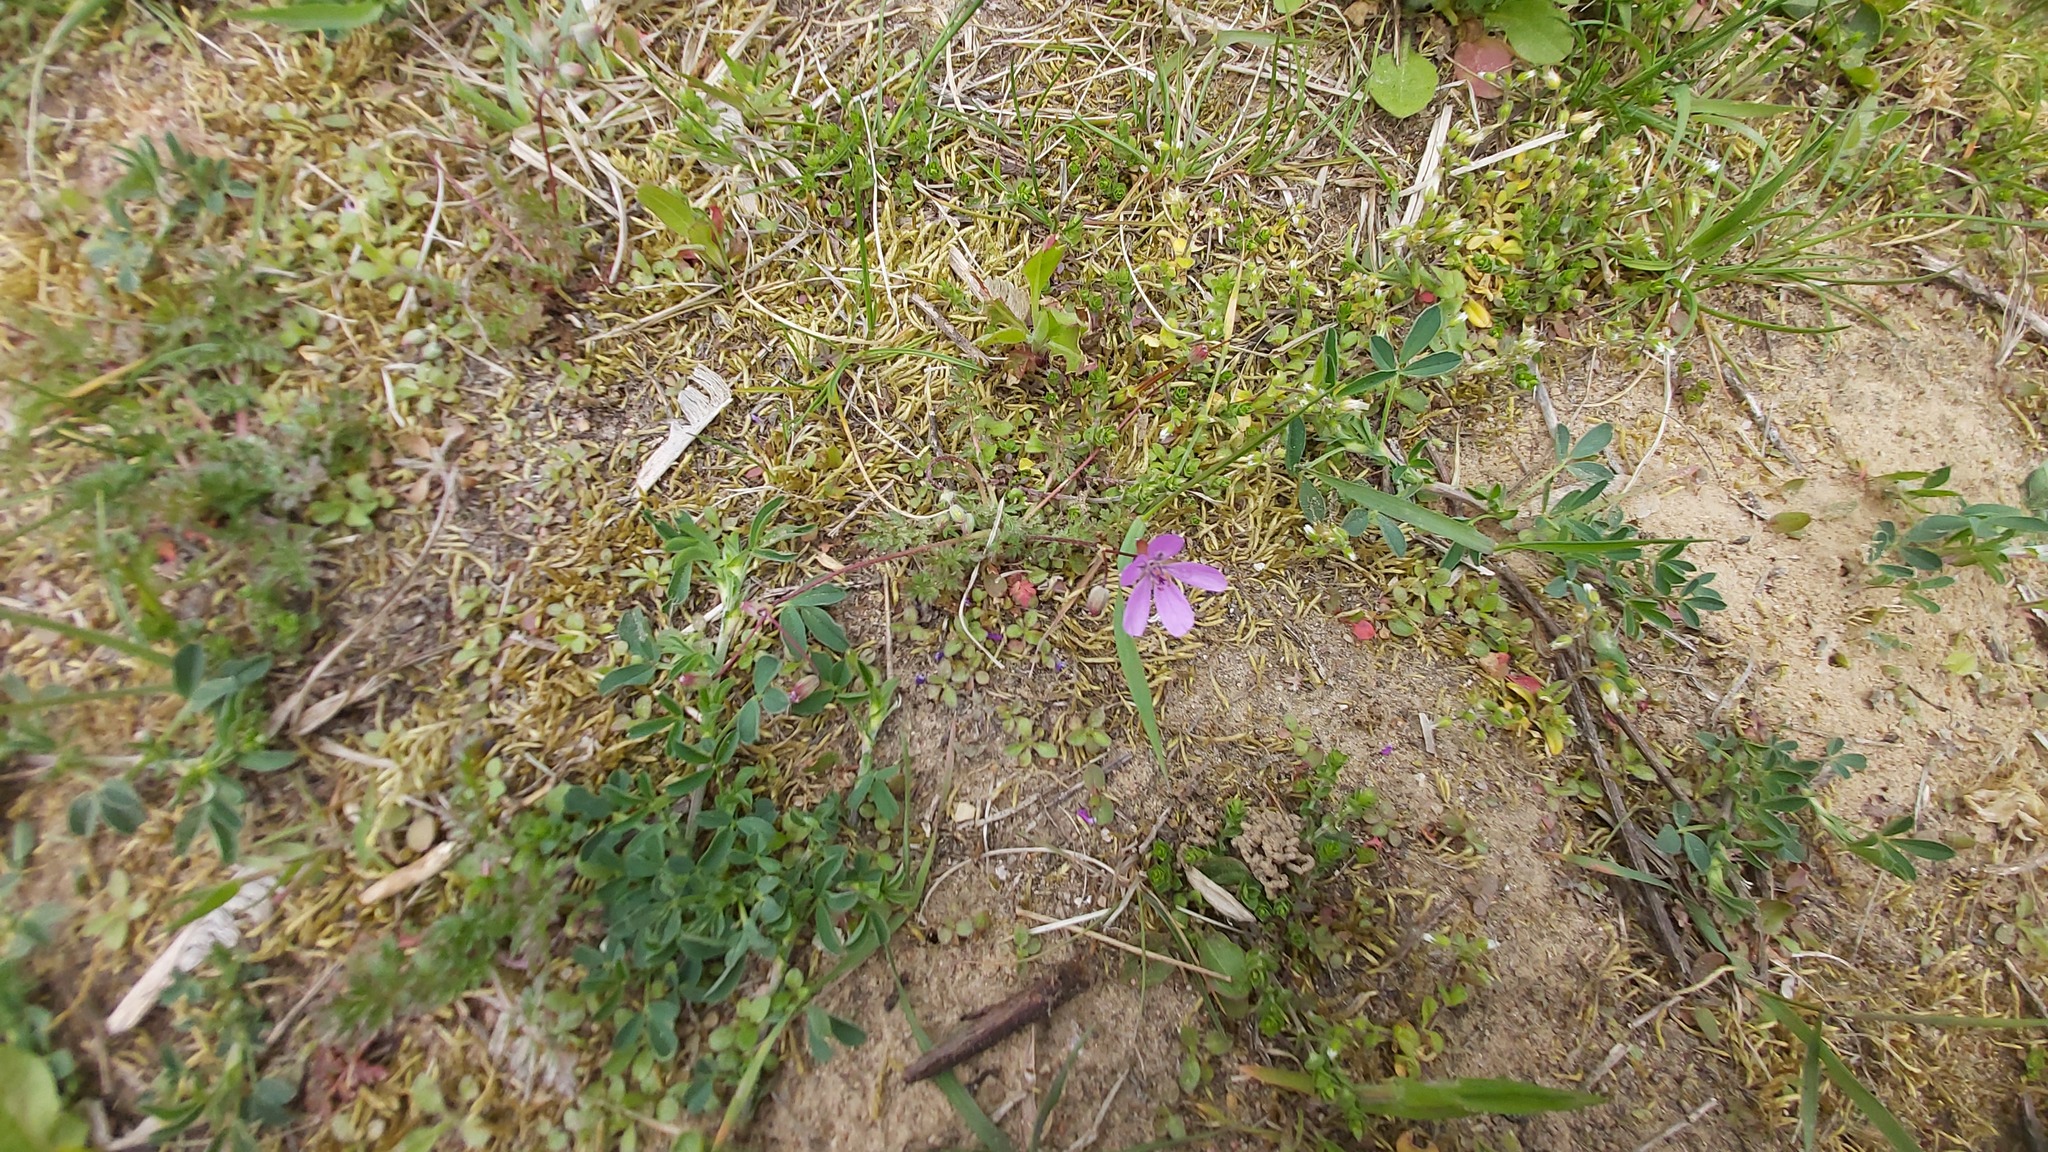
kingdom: Plantae
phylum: Tracheophyta
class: Magnoliopsida
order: Geraniales
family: Geraniaceae
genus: Erodium
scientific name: Erodium cicutarium
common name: Common stork's-bill
